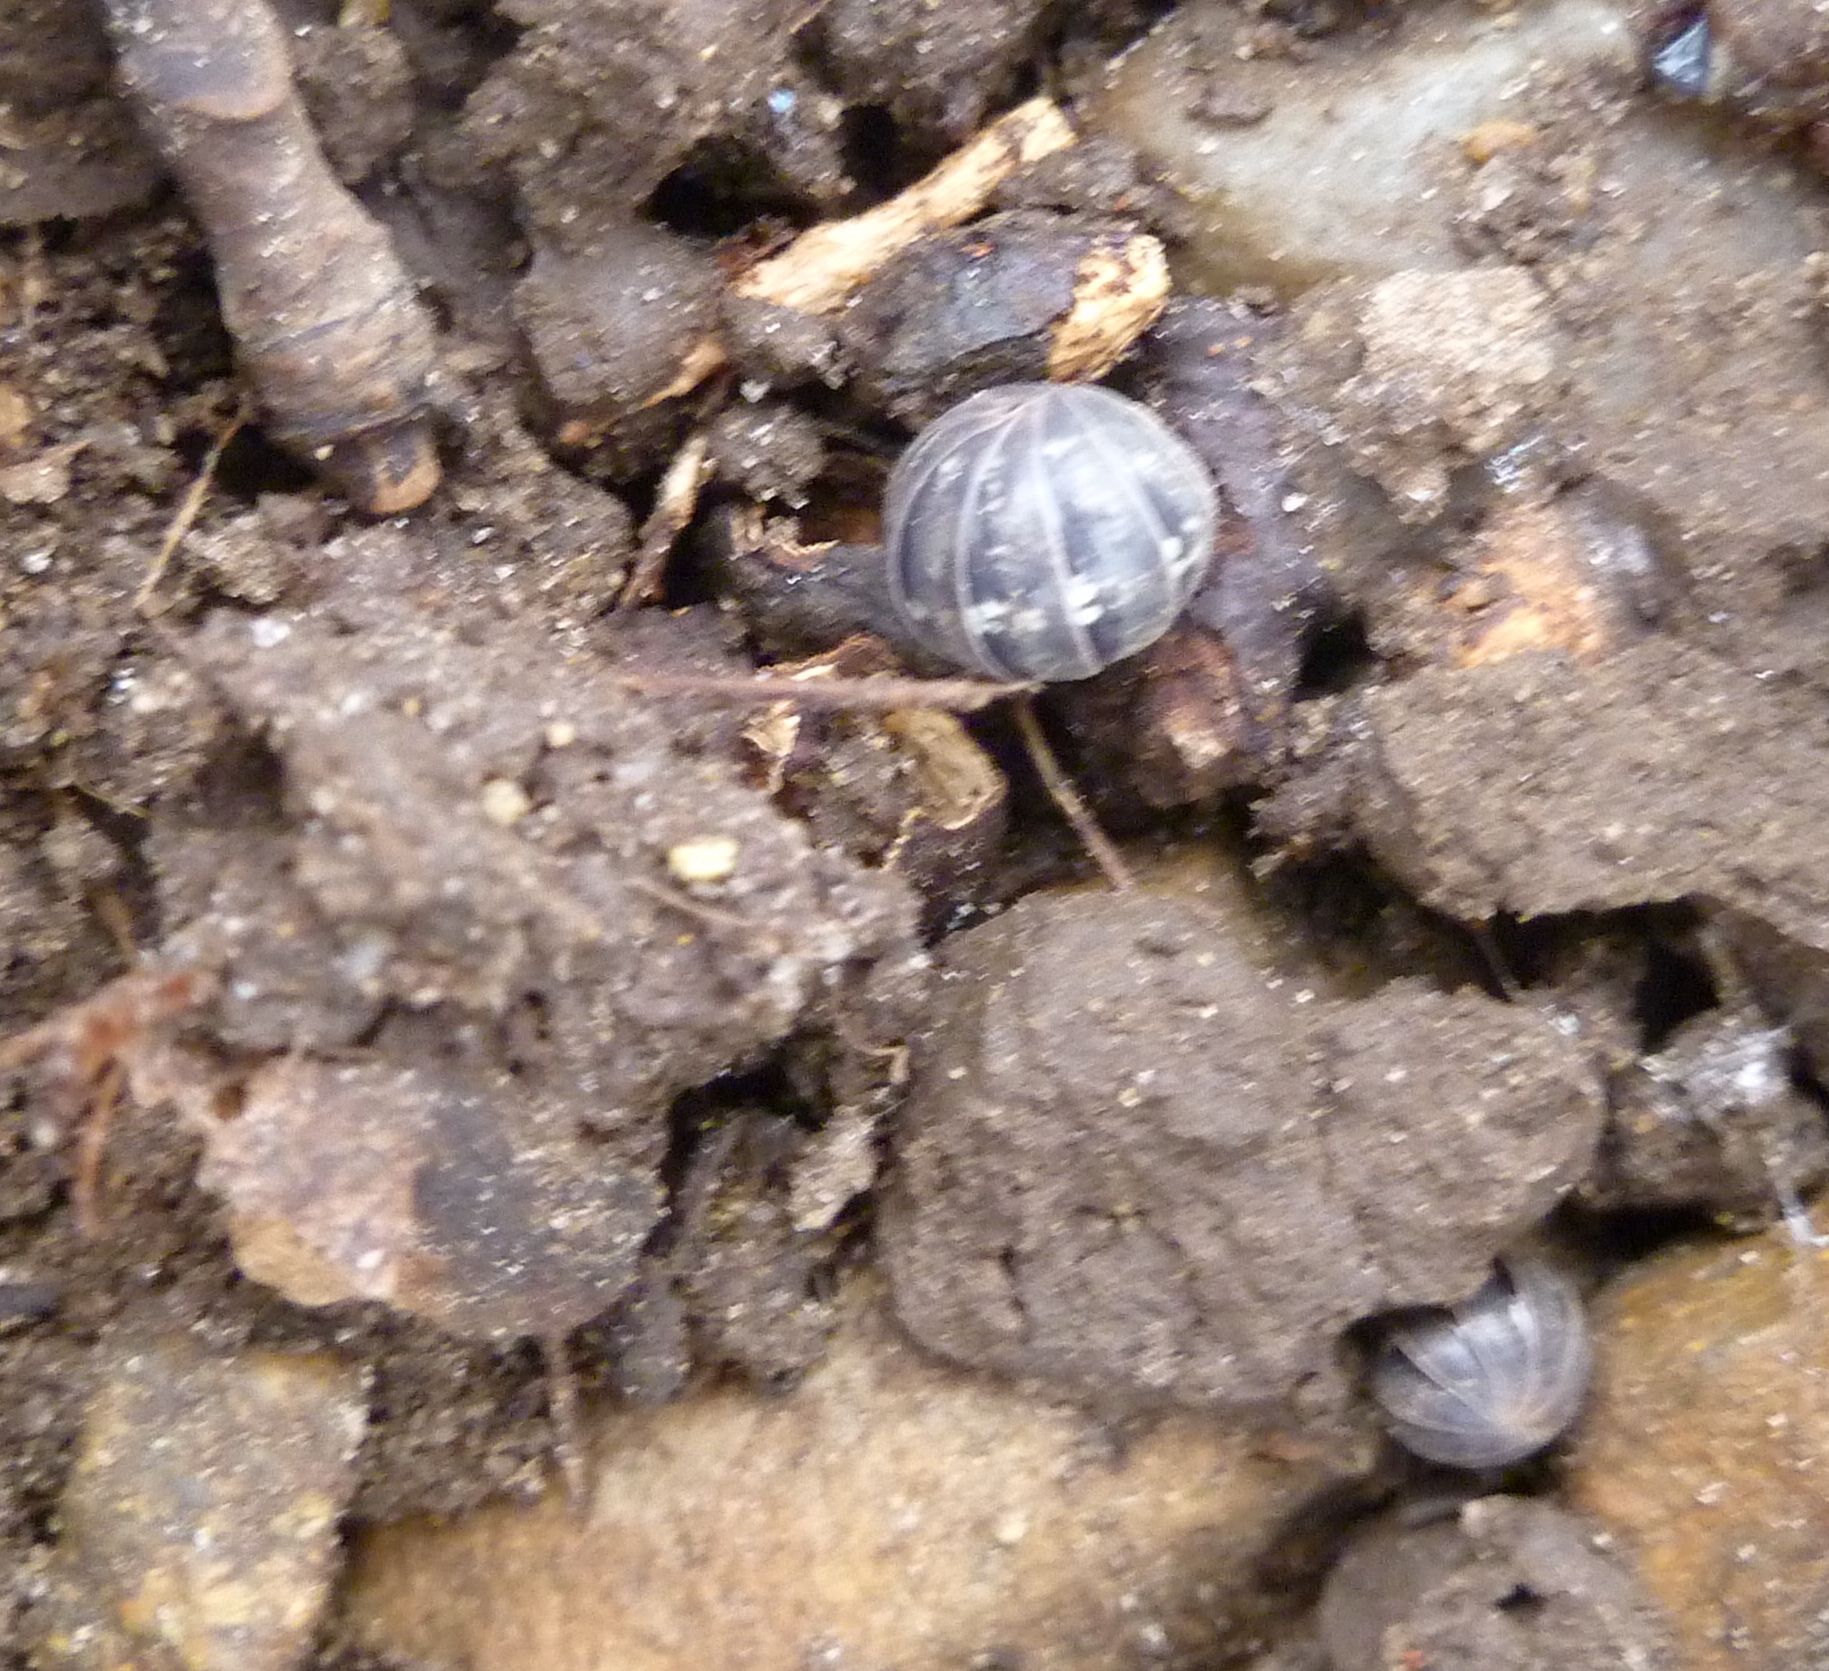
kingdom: Animalia
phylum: Arthropoda
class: Malacostraca
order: Isopoda
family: Armadillidiidae
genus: Armadillidium
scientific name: Armadillidium vulgare
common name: Common pill woodlouse
